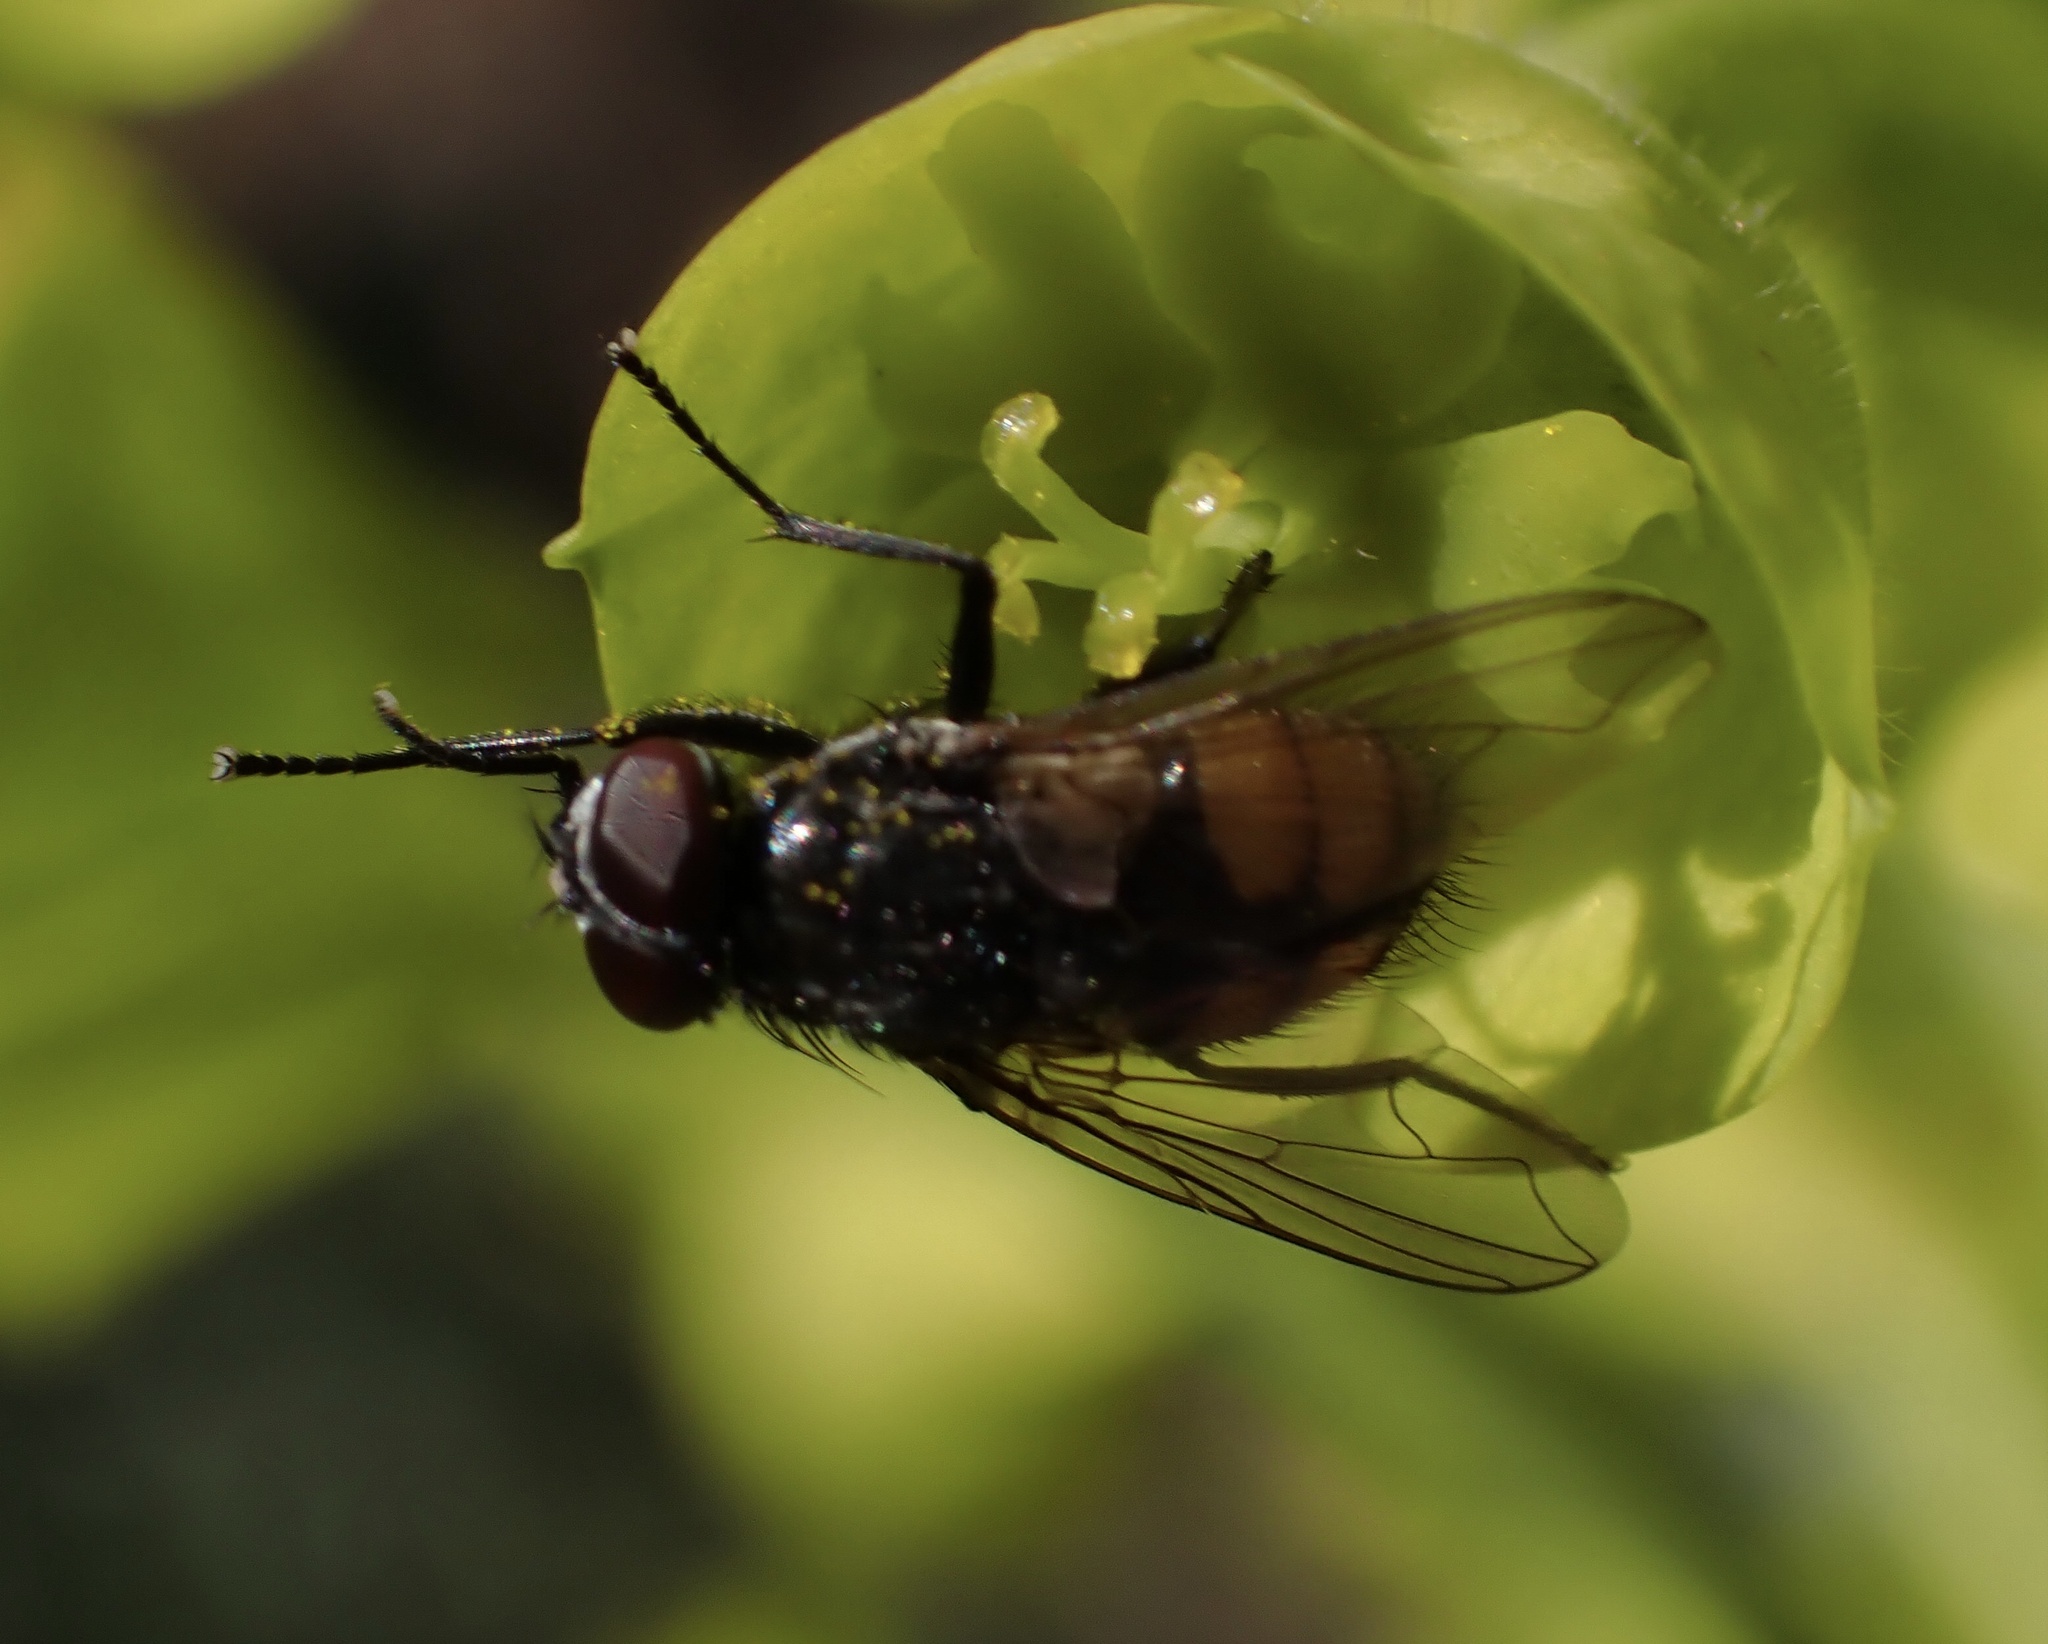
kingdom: Animalia
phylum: Arthropoda
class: Insecta
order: Diptera
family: Muscidae
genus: Musca
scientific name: Musca autumnalis
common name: Face fly
